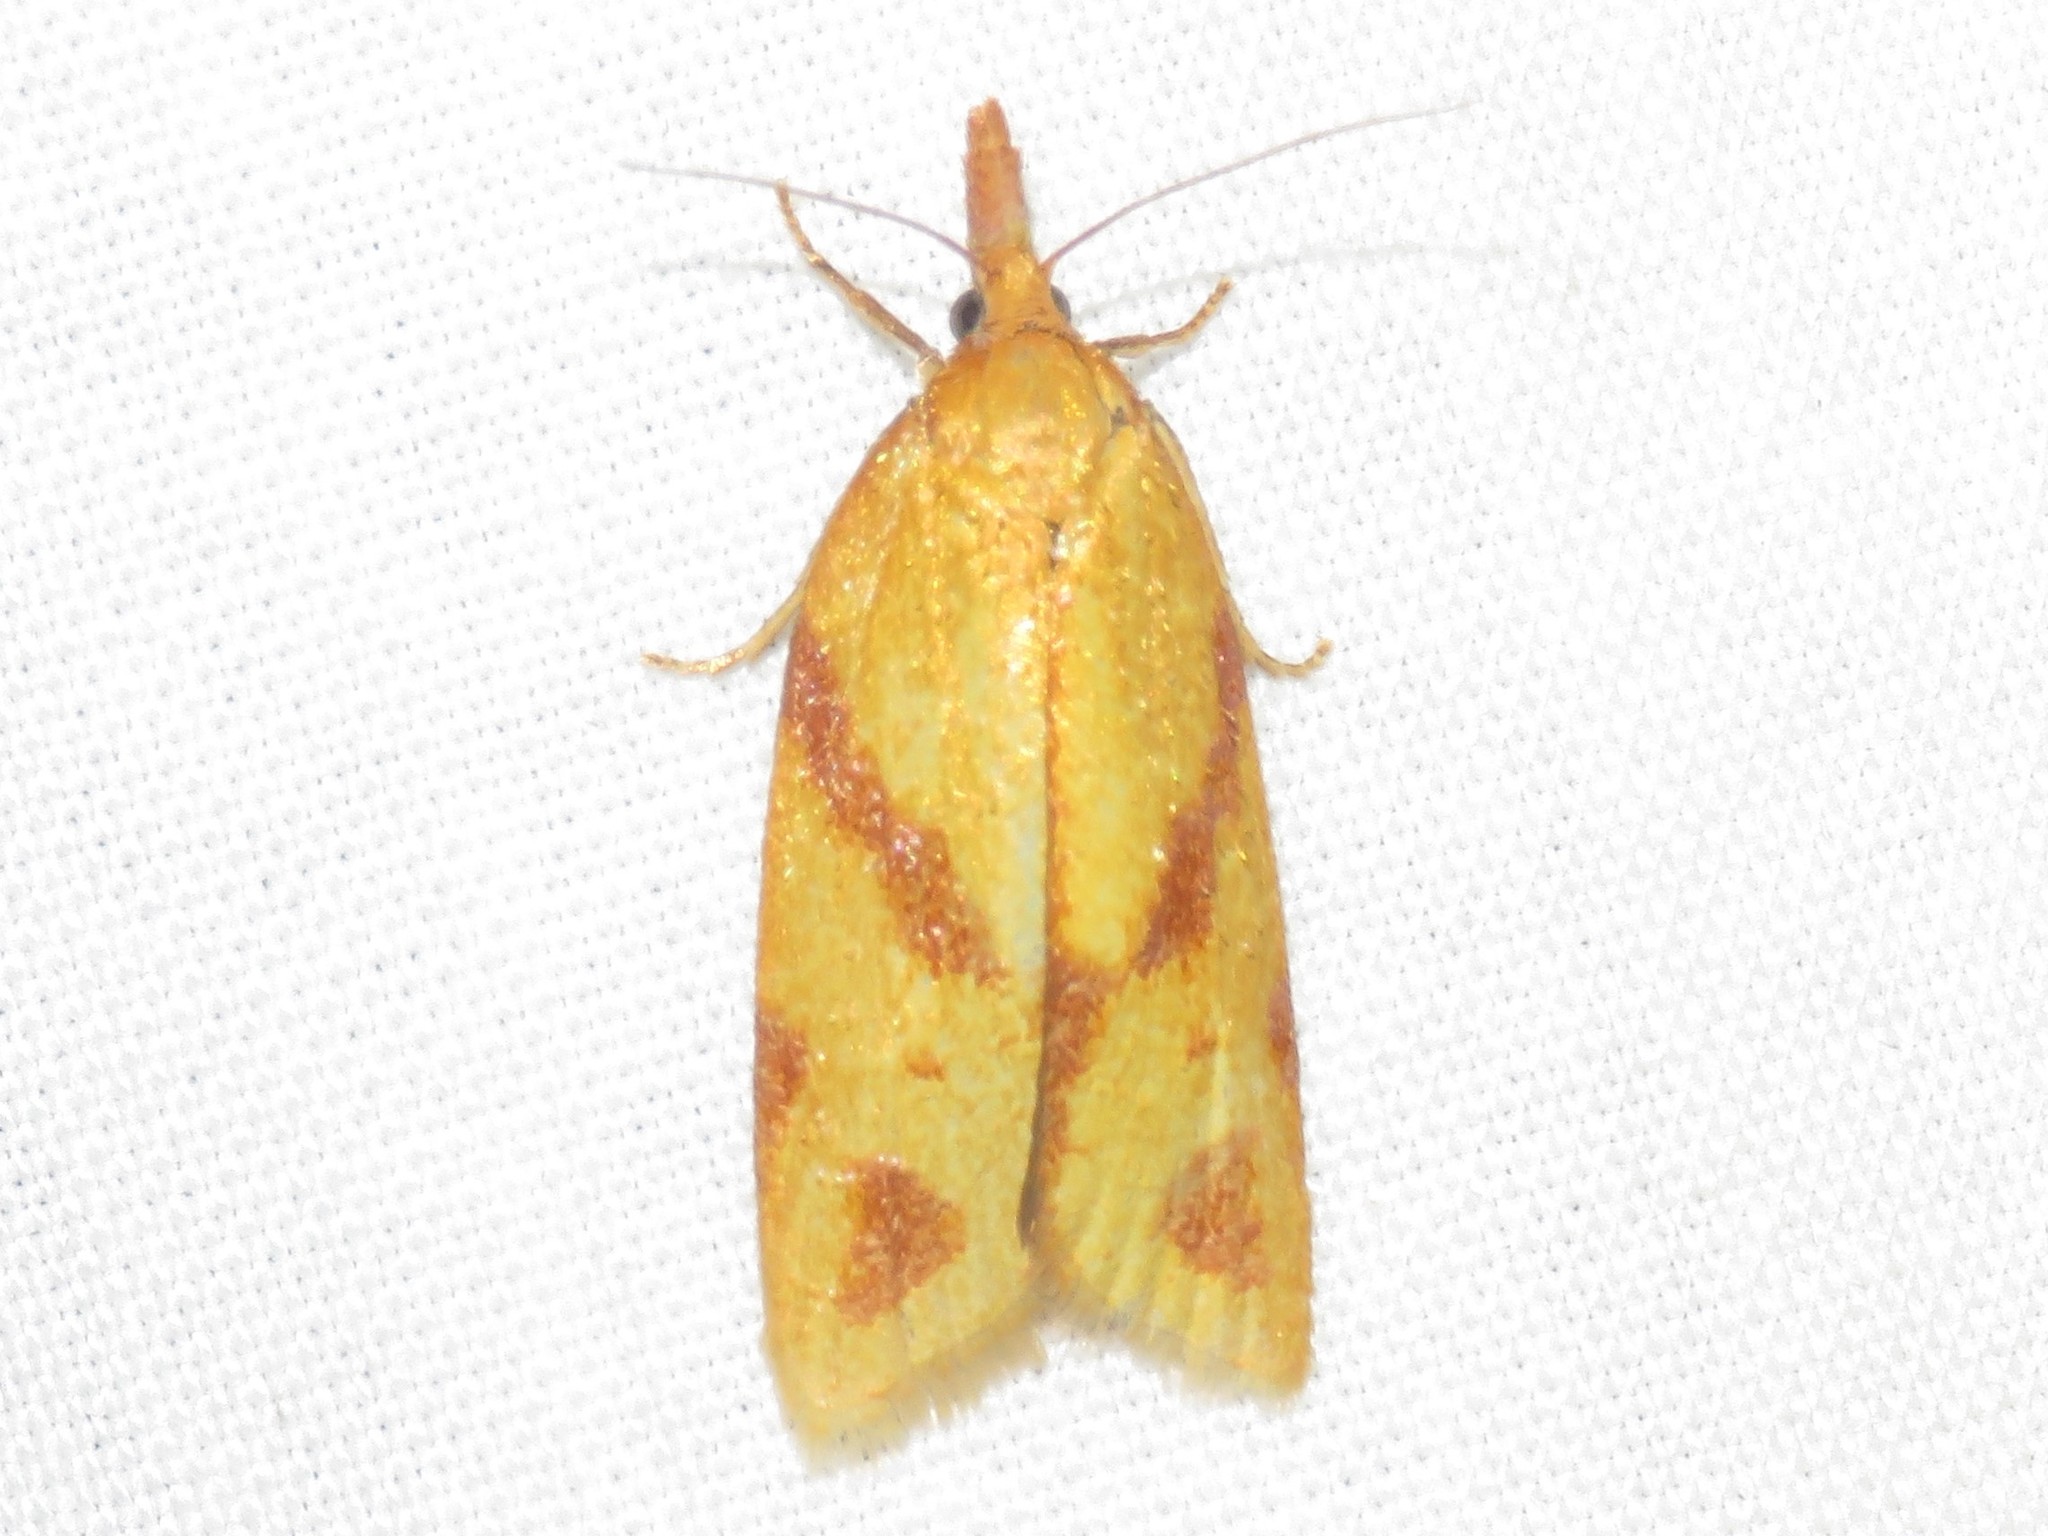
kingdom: Animalia
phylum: Arthropoda
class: Insecta
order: Lepidoptera
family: Tortricidae
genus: Sparganothis
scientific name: Sparganothis unifasciana
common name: One-lined sparganothis moth
